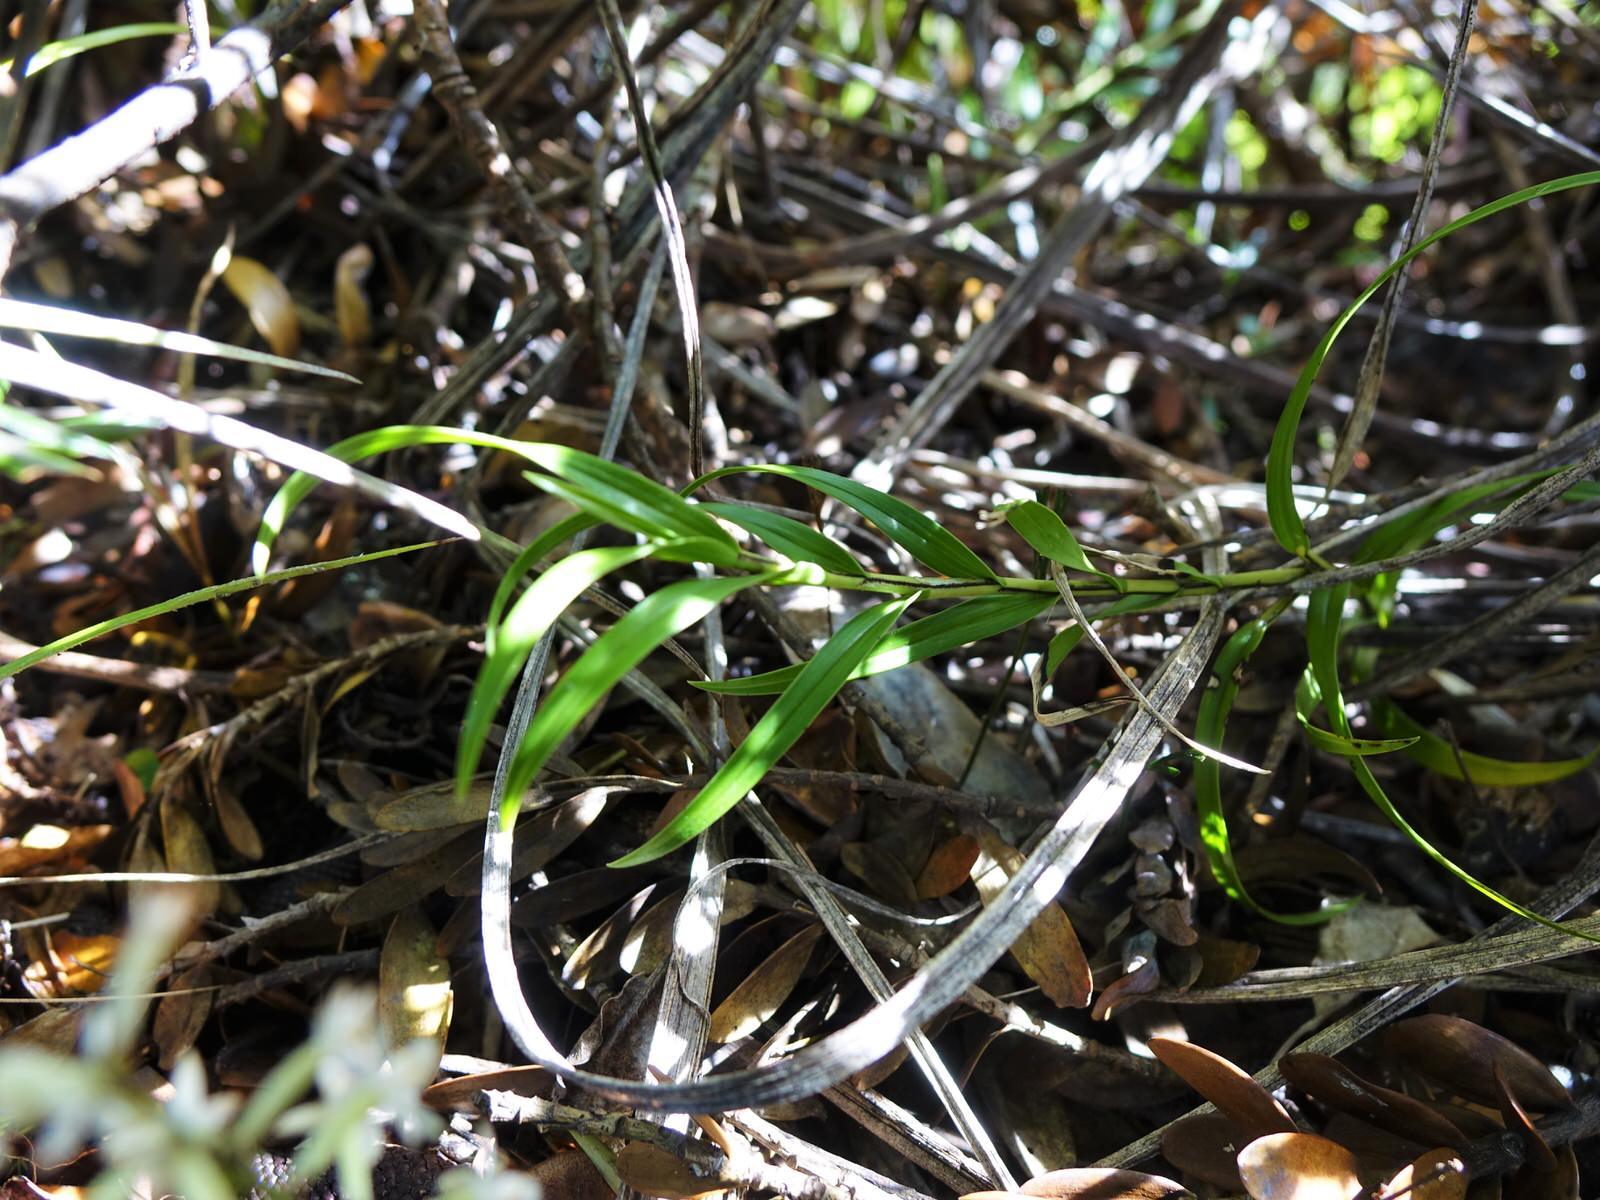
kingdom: Plantae
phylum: Tracheophyta
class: Liliopsida
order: Asparagales
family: Orchidaceae
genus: Earina
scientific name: Earina autumnalis
